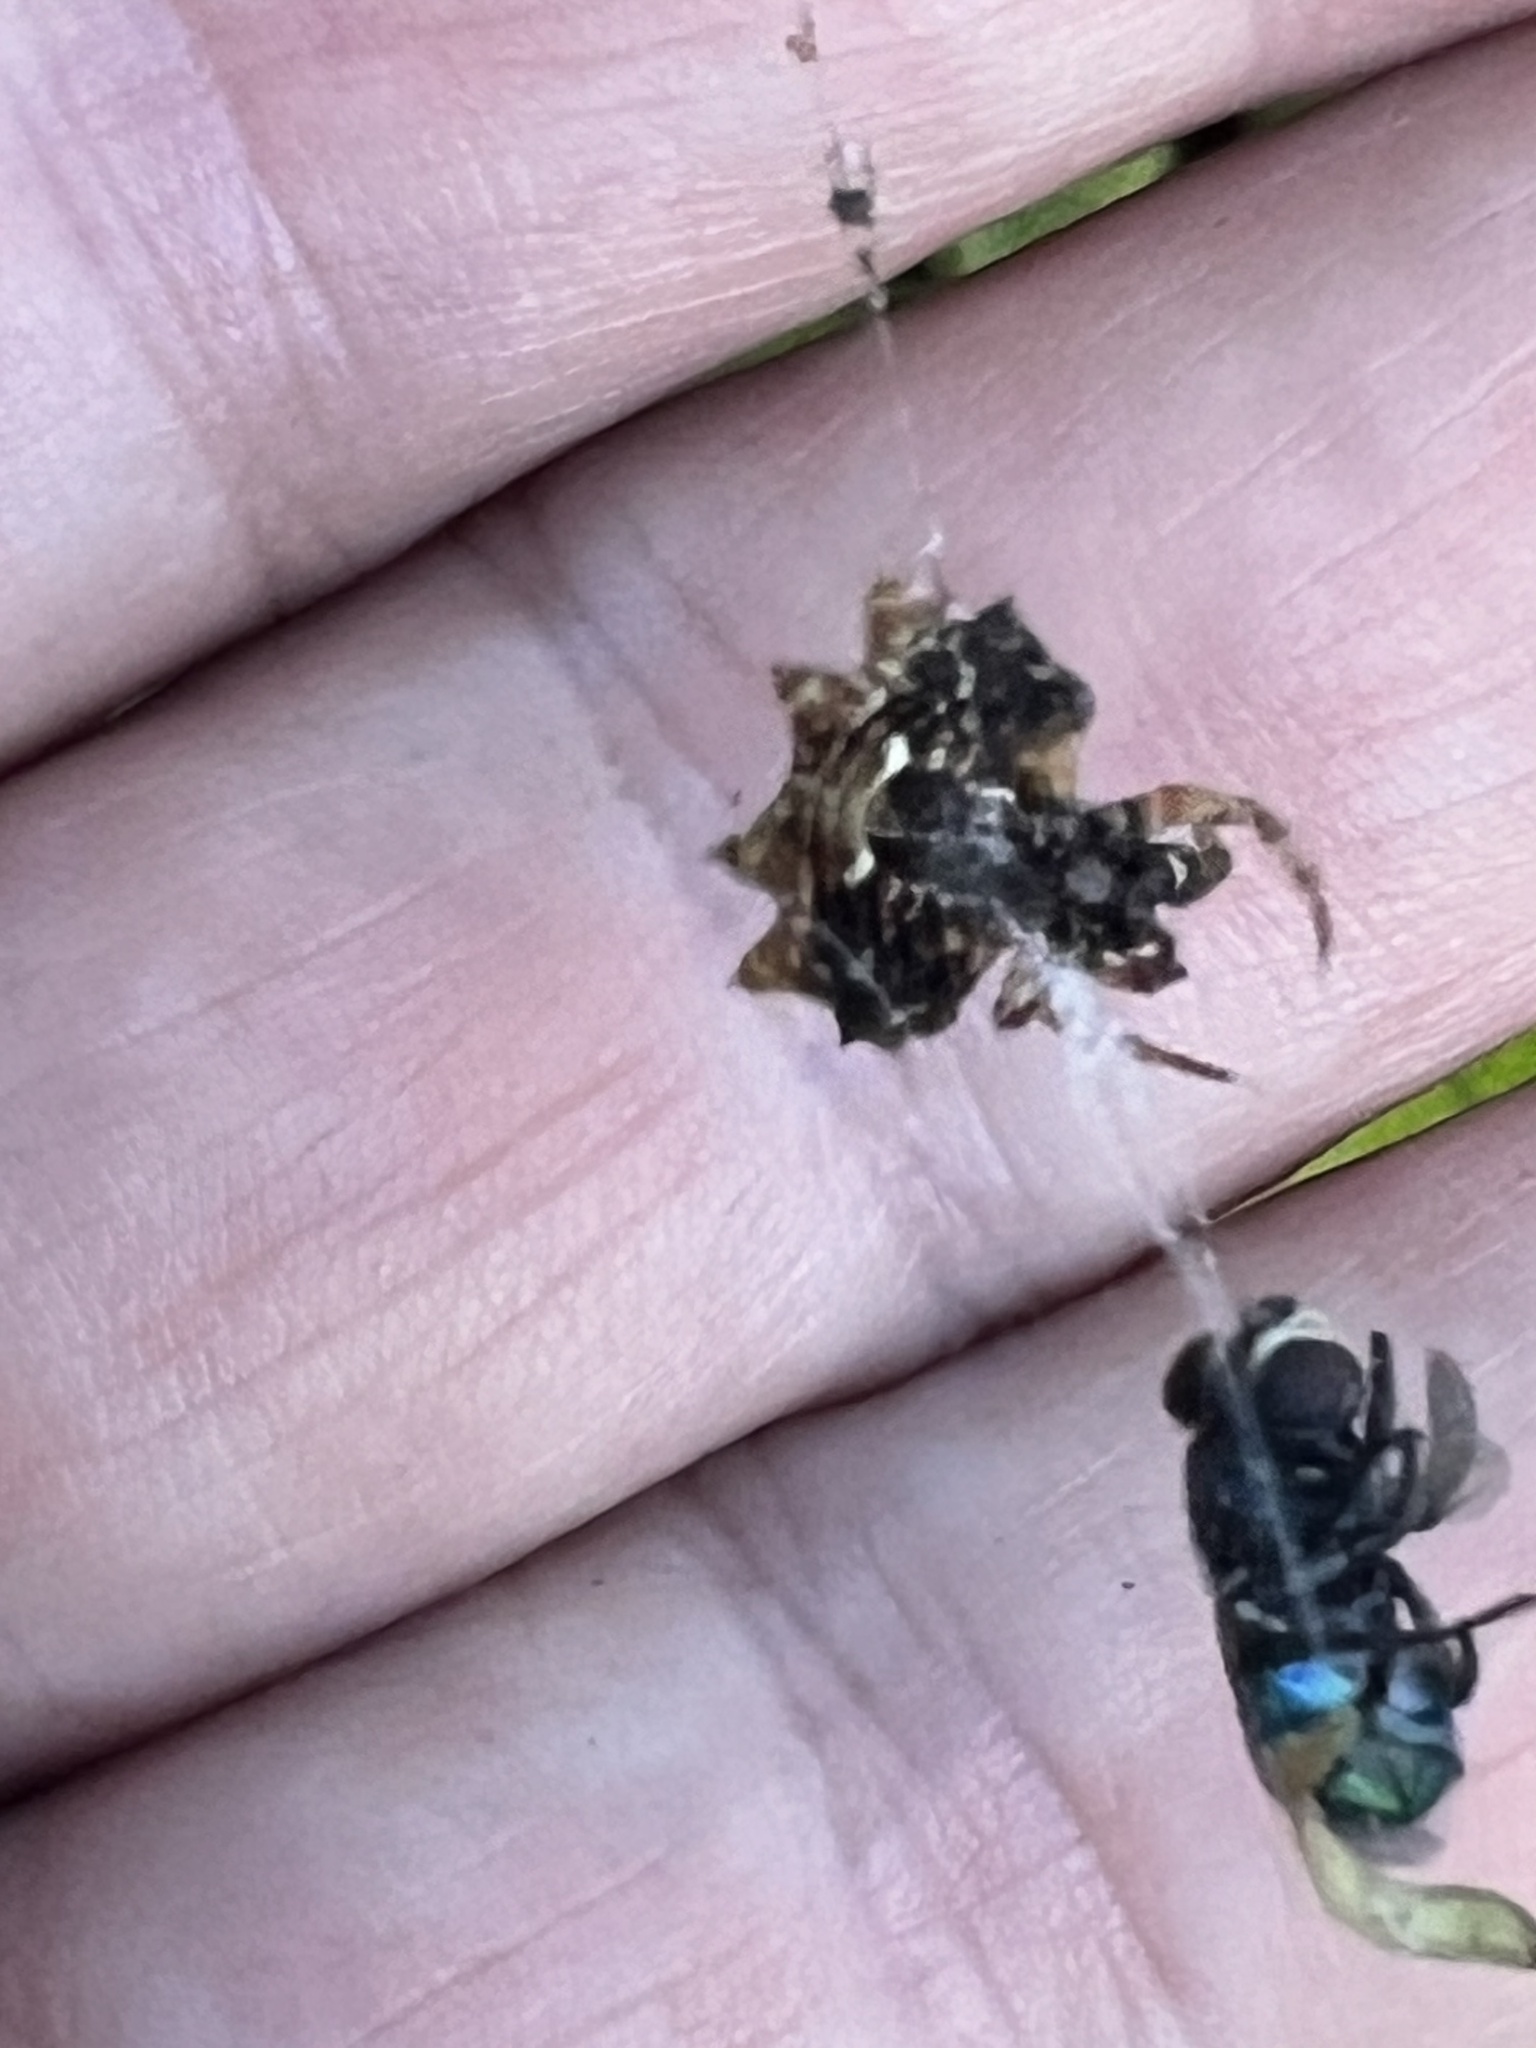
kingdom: Animalia
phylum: Arthropoda
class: Arachnida
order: Araneae
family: Araneidae
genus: Thelacantha
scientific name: Thelacantha brevispina
